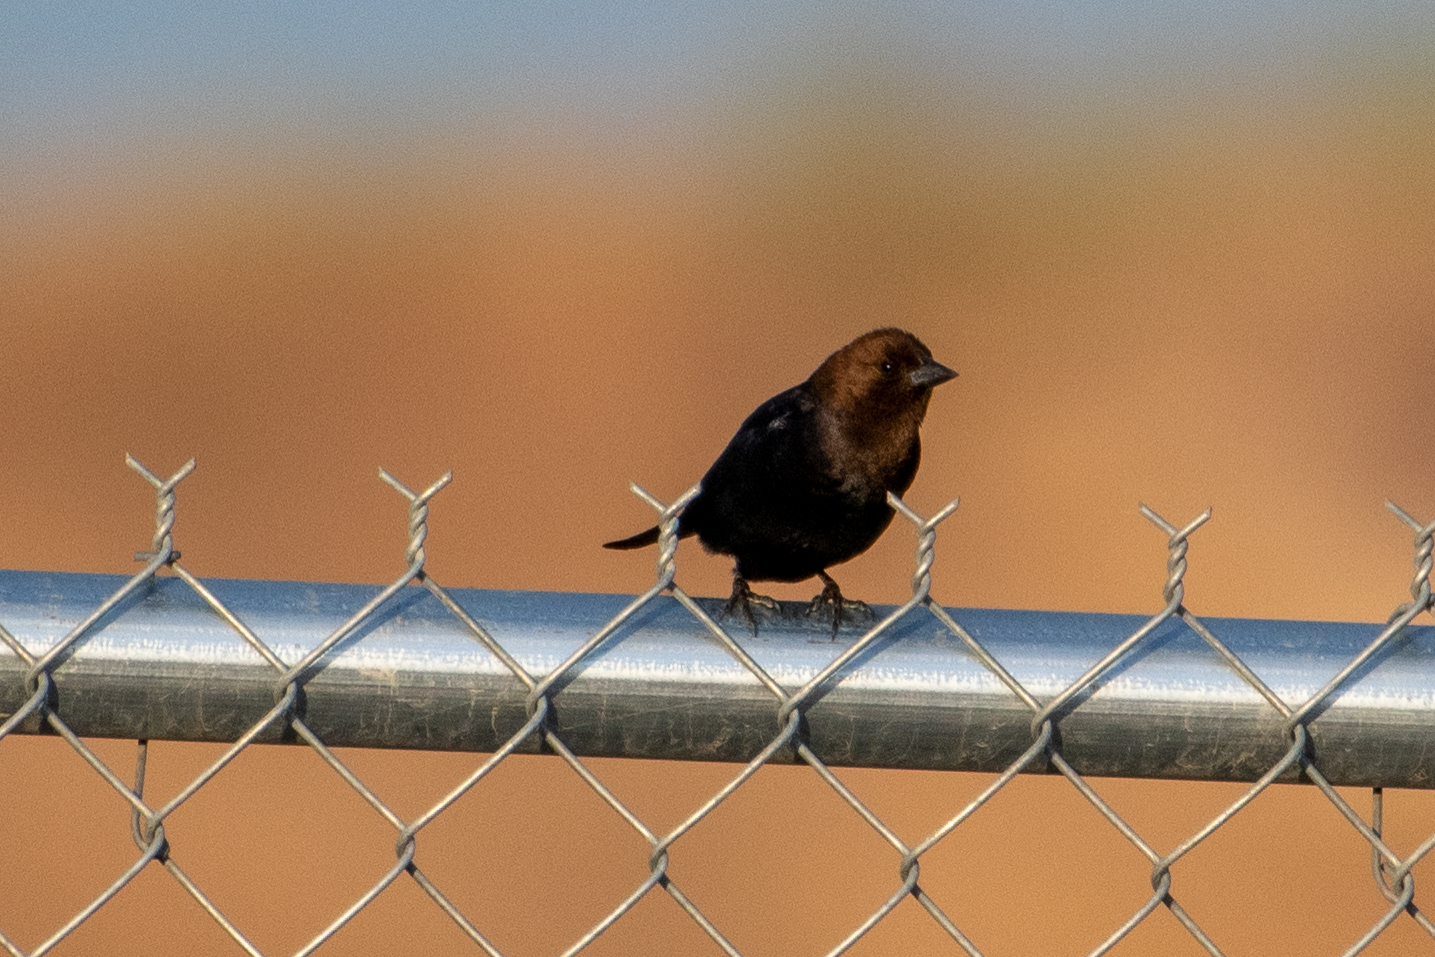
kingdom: Animalia
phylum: Chordata
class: Aves
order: Passeriformes
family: Icteridae
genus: Molothrus
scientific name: Molothrus ater
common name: Brown-headed cowbird
